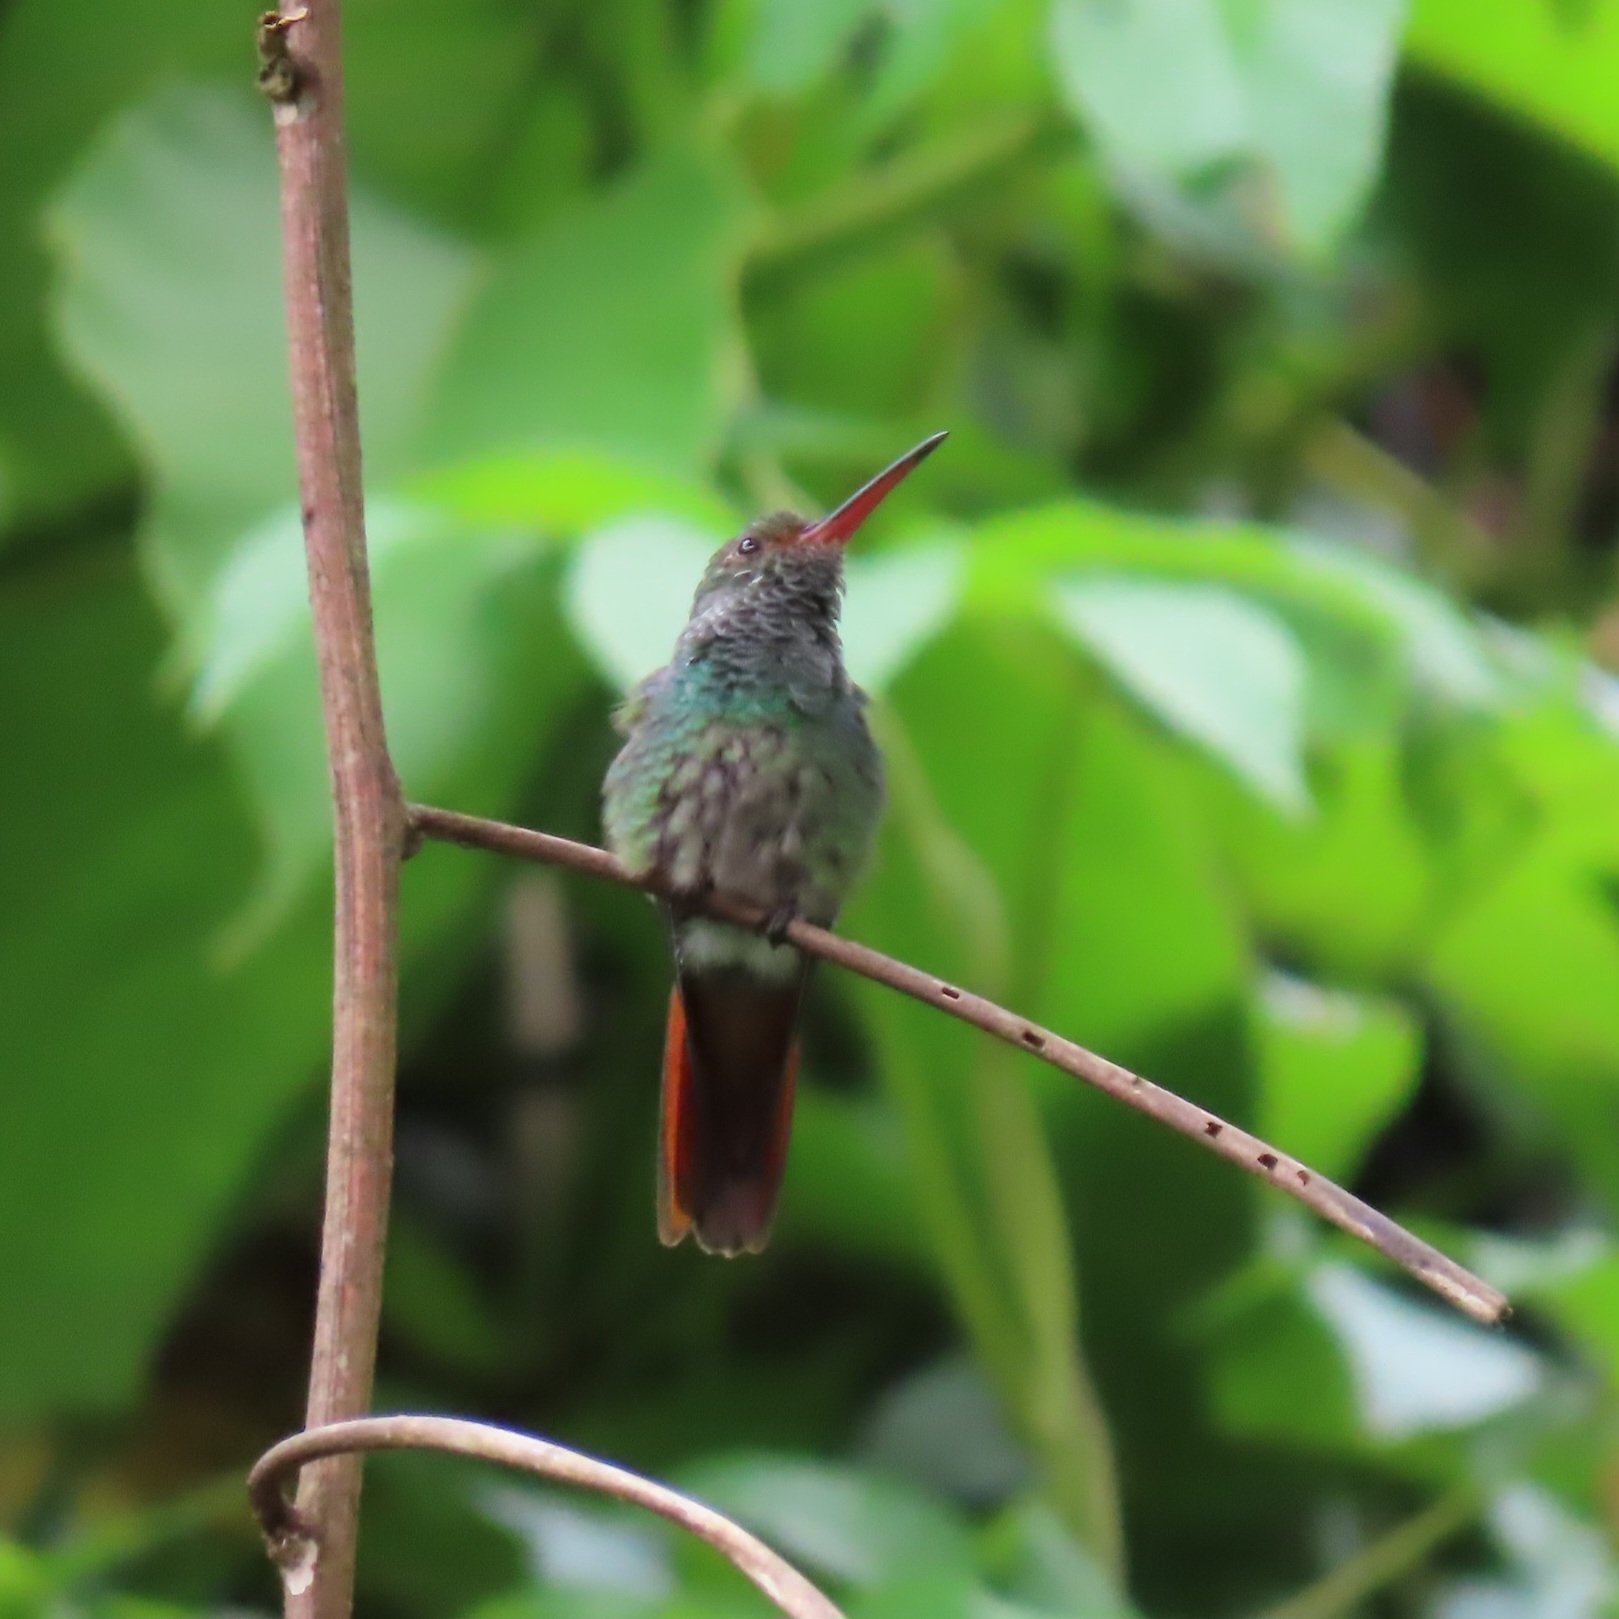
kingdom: Animalia
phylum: Chordata
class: Aves
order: Apodiformes
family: Trochilidae
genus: Amazilia
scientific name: Amazilia tzacatl
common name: Rufous-tailed hummingbird
